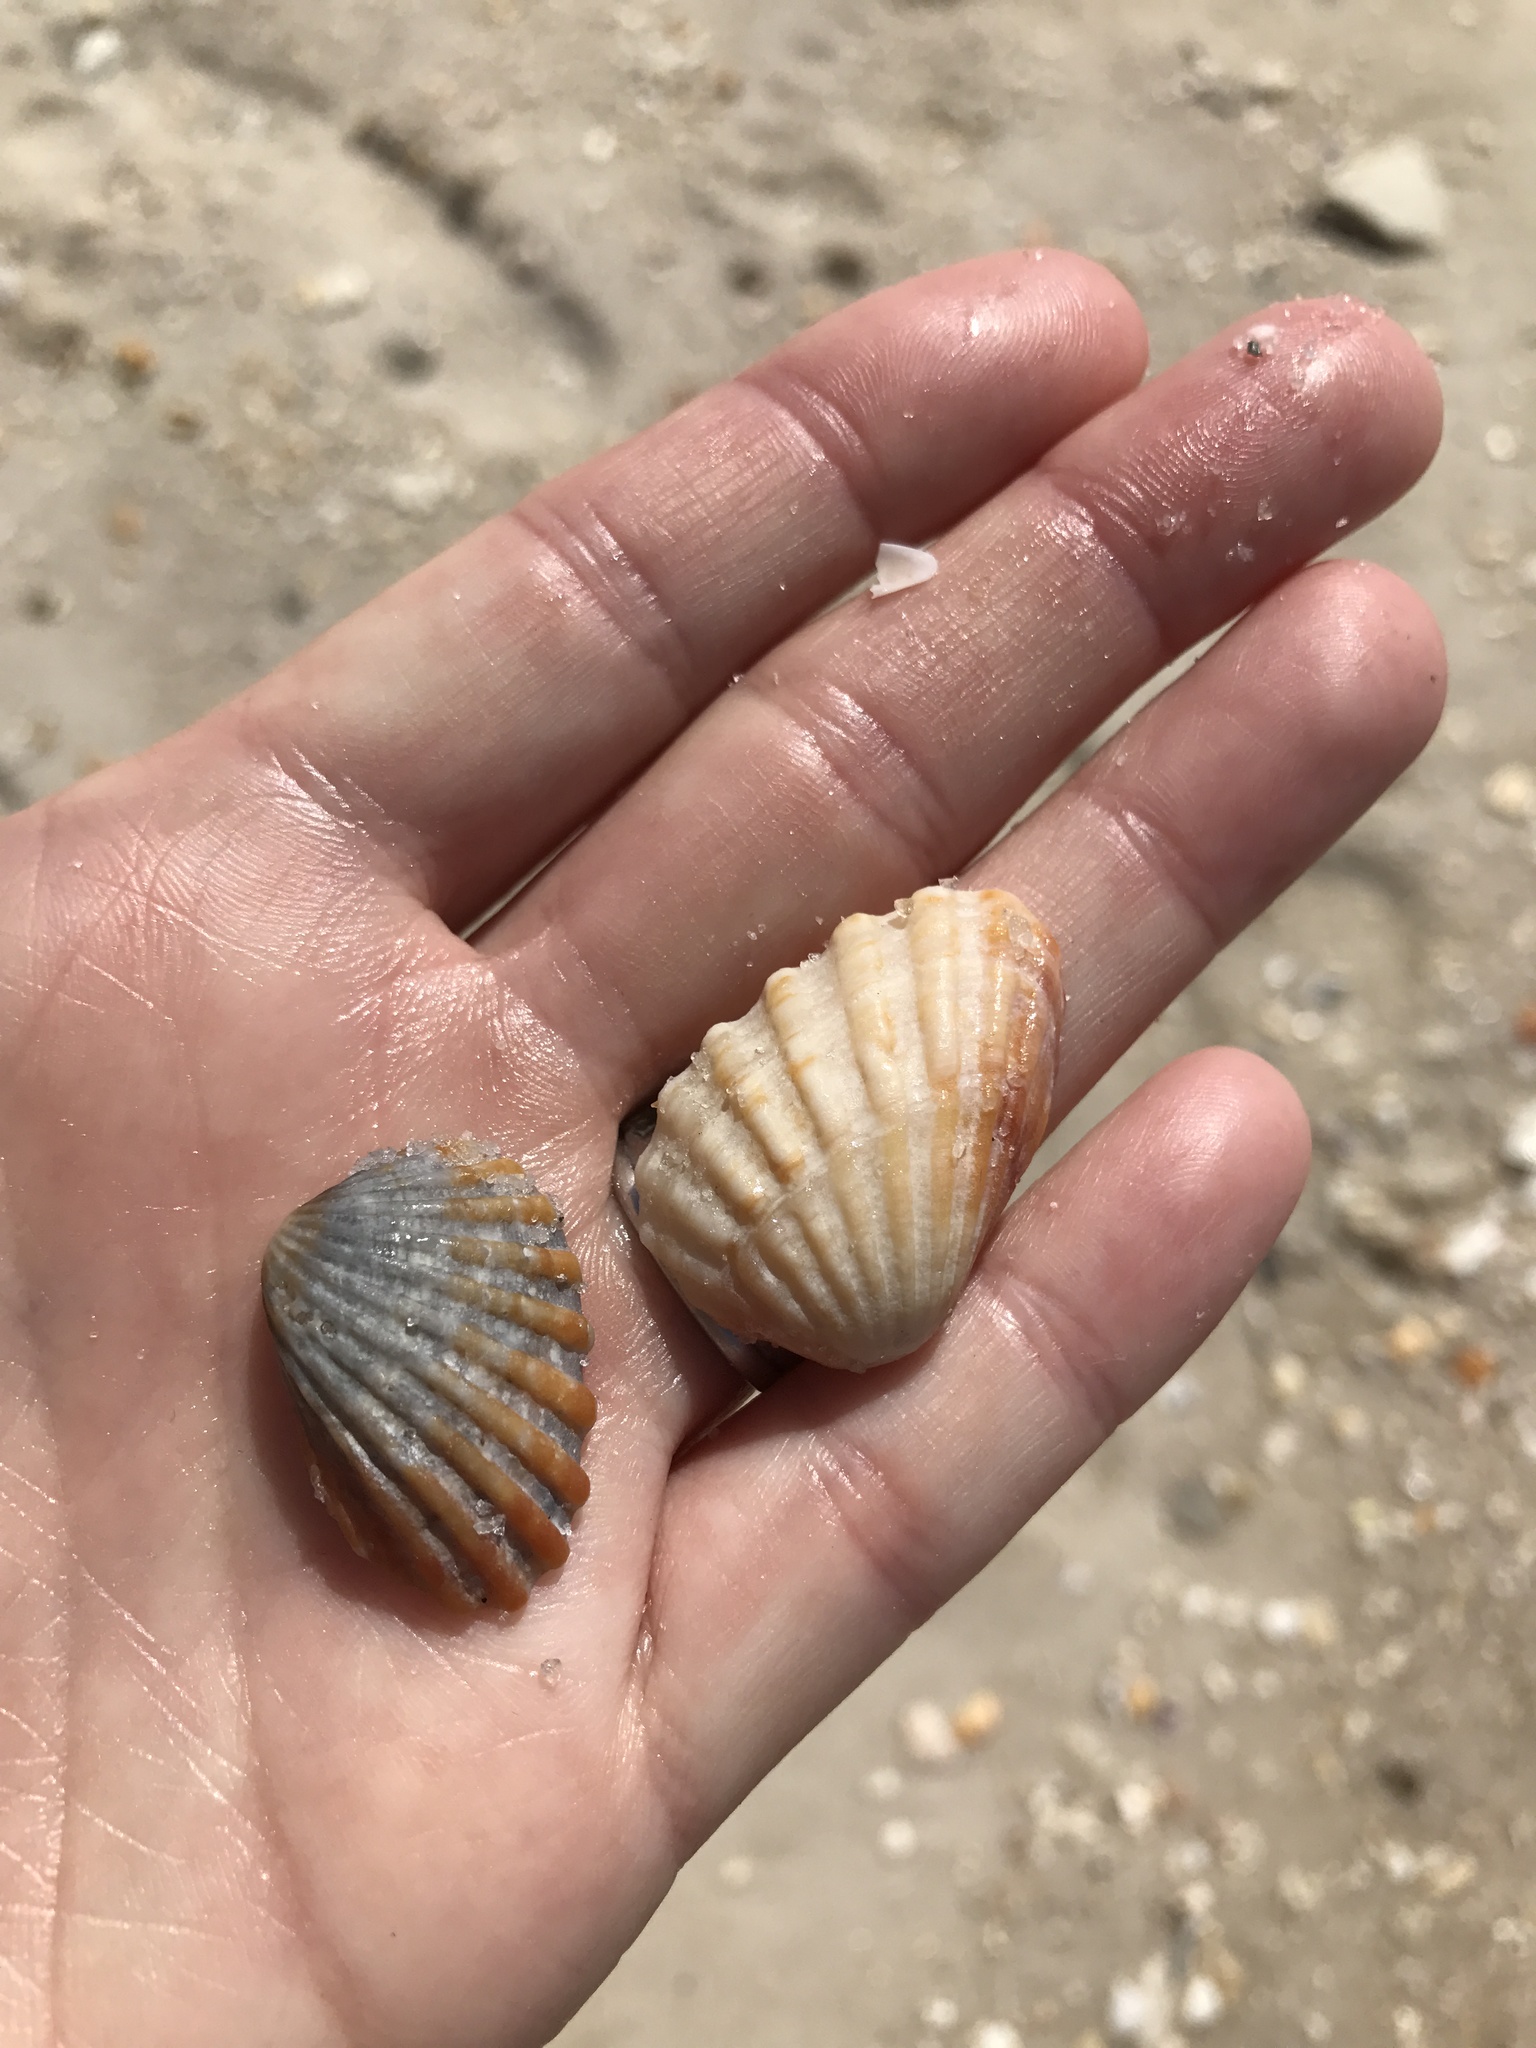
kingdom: Animalia
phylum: Mollusca
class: Bivalvia
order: Carditida
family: Carditidae
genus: Cardites
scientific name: Cardites floridanus
